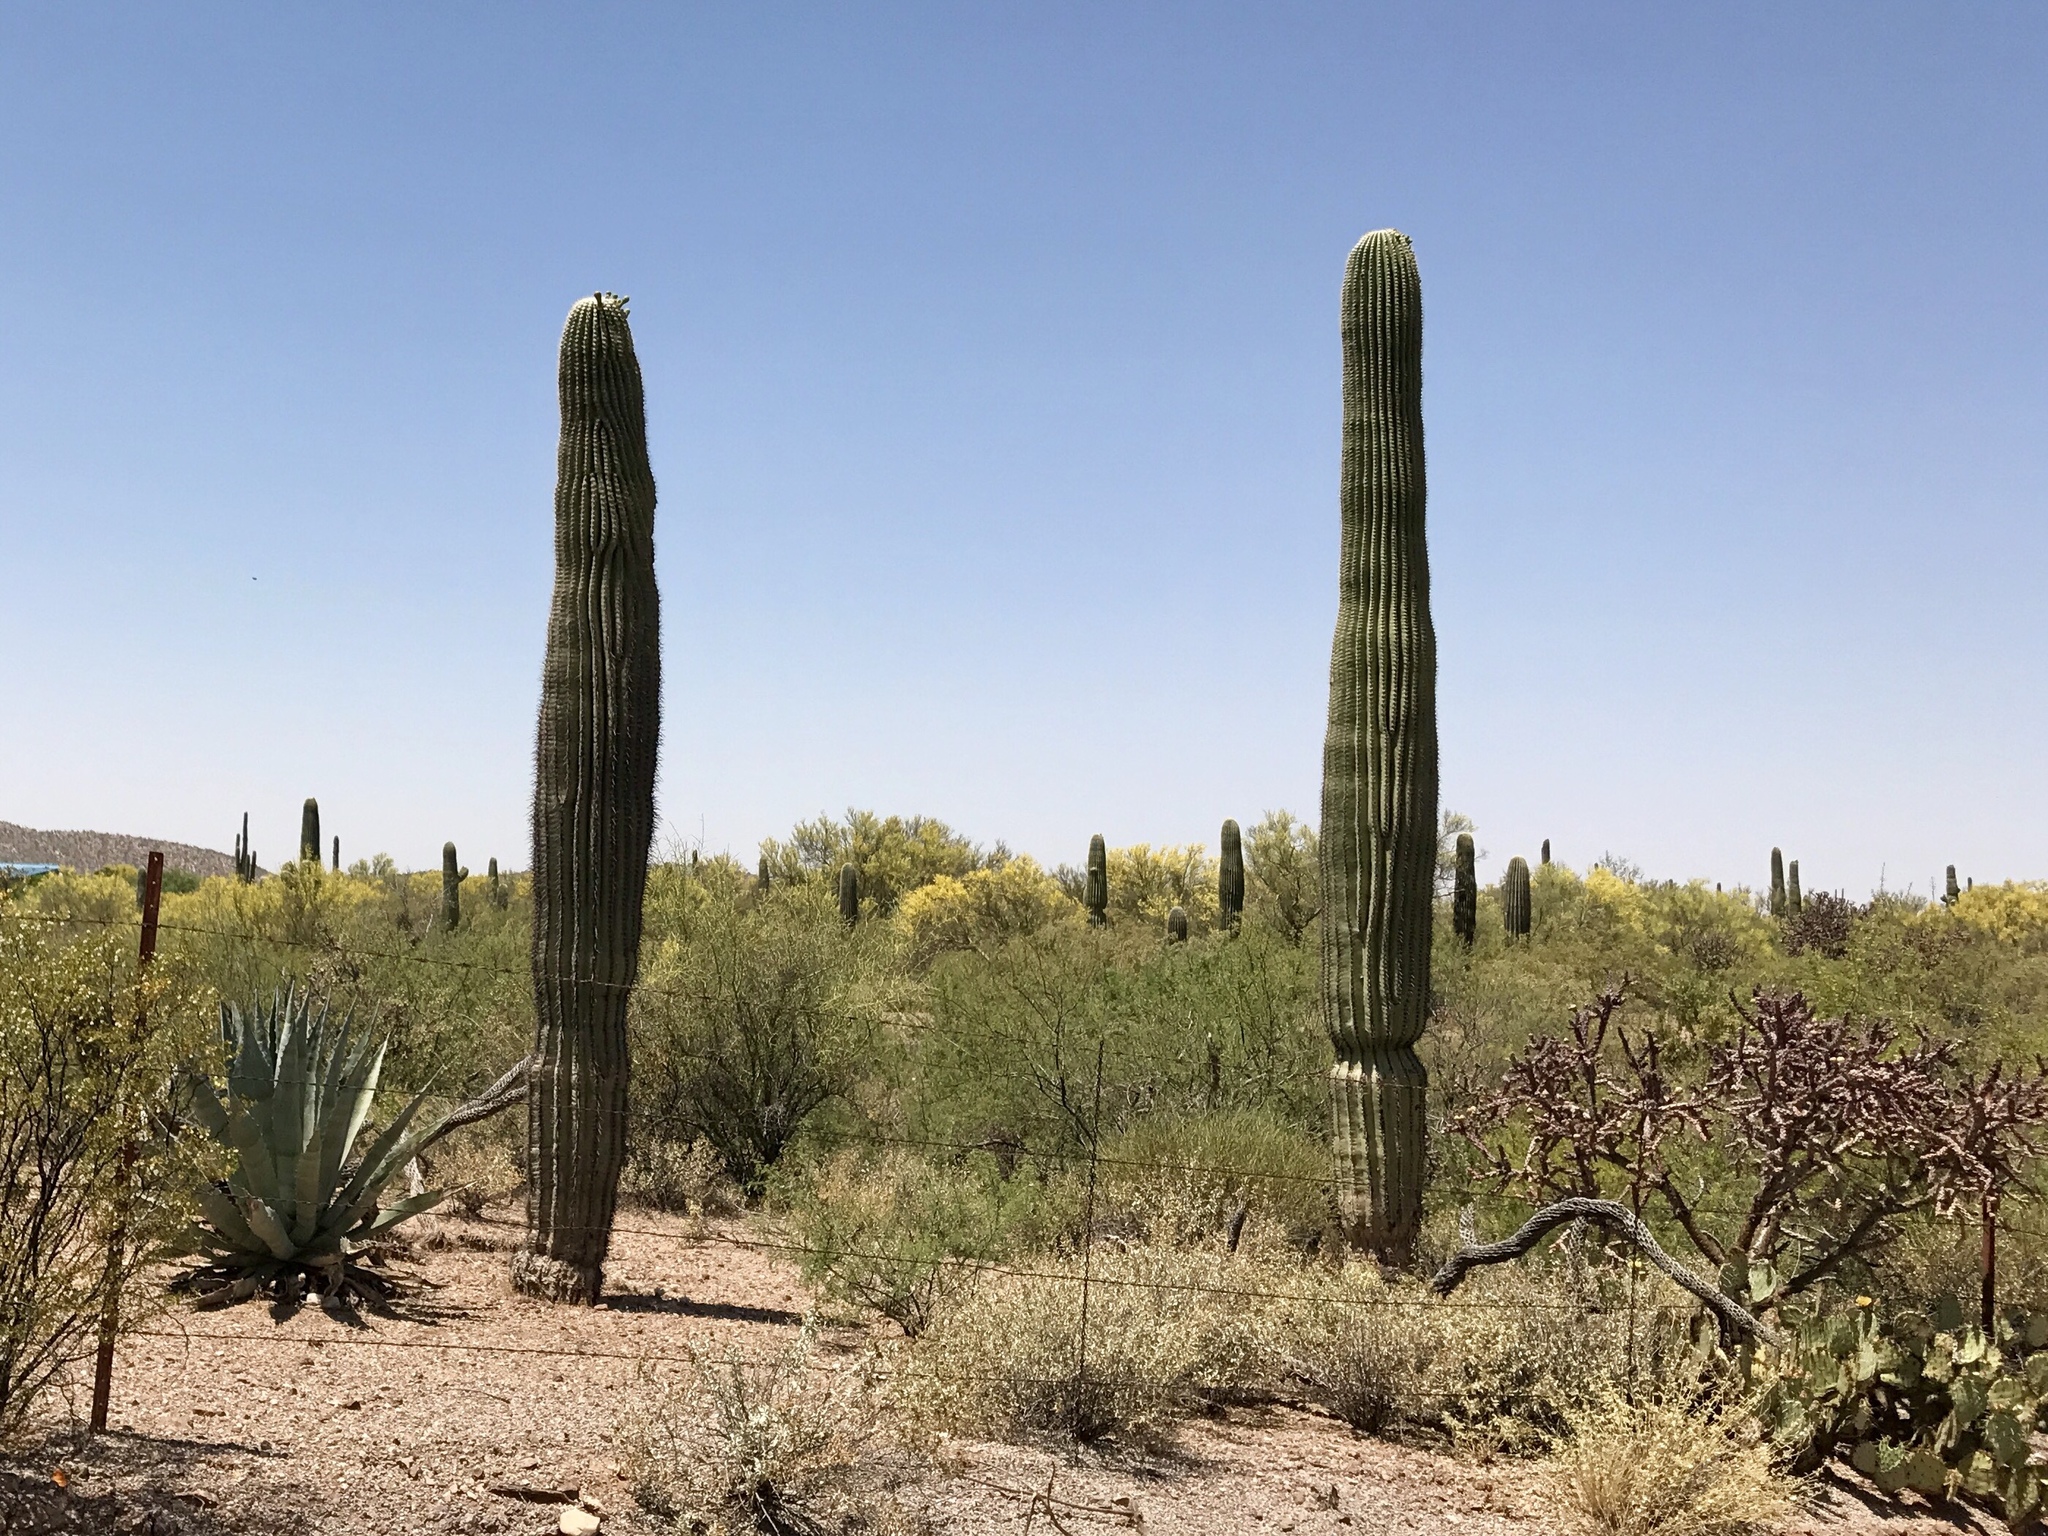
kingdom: Plantae
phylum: Tracheophyta
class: Magnoliopsida
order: Caryophyllales
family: Cactaceae
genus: Carnegiea
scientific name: Carnegiea gigantea
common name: Saguaro
